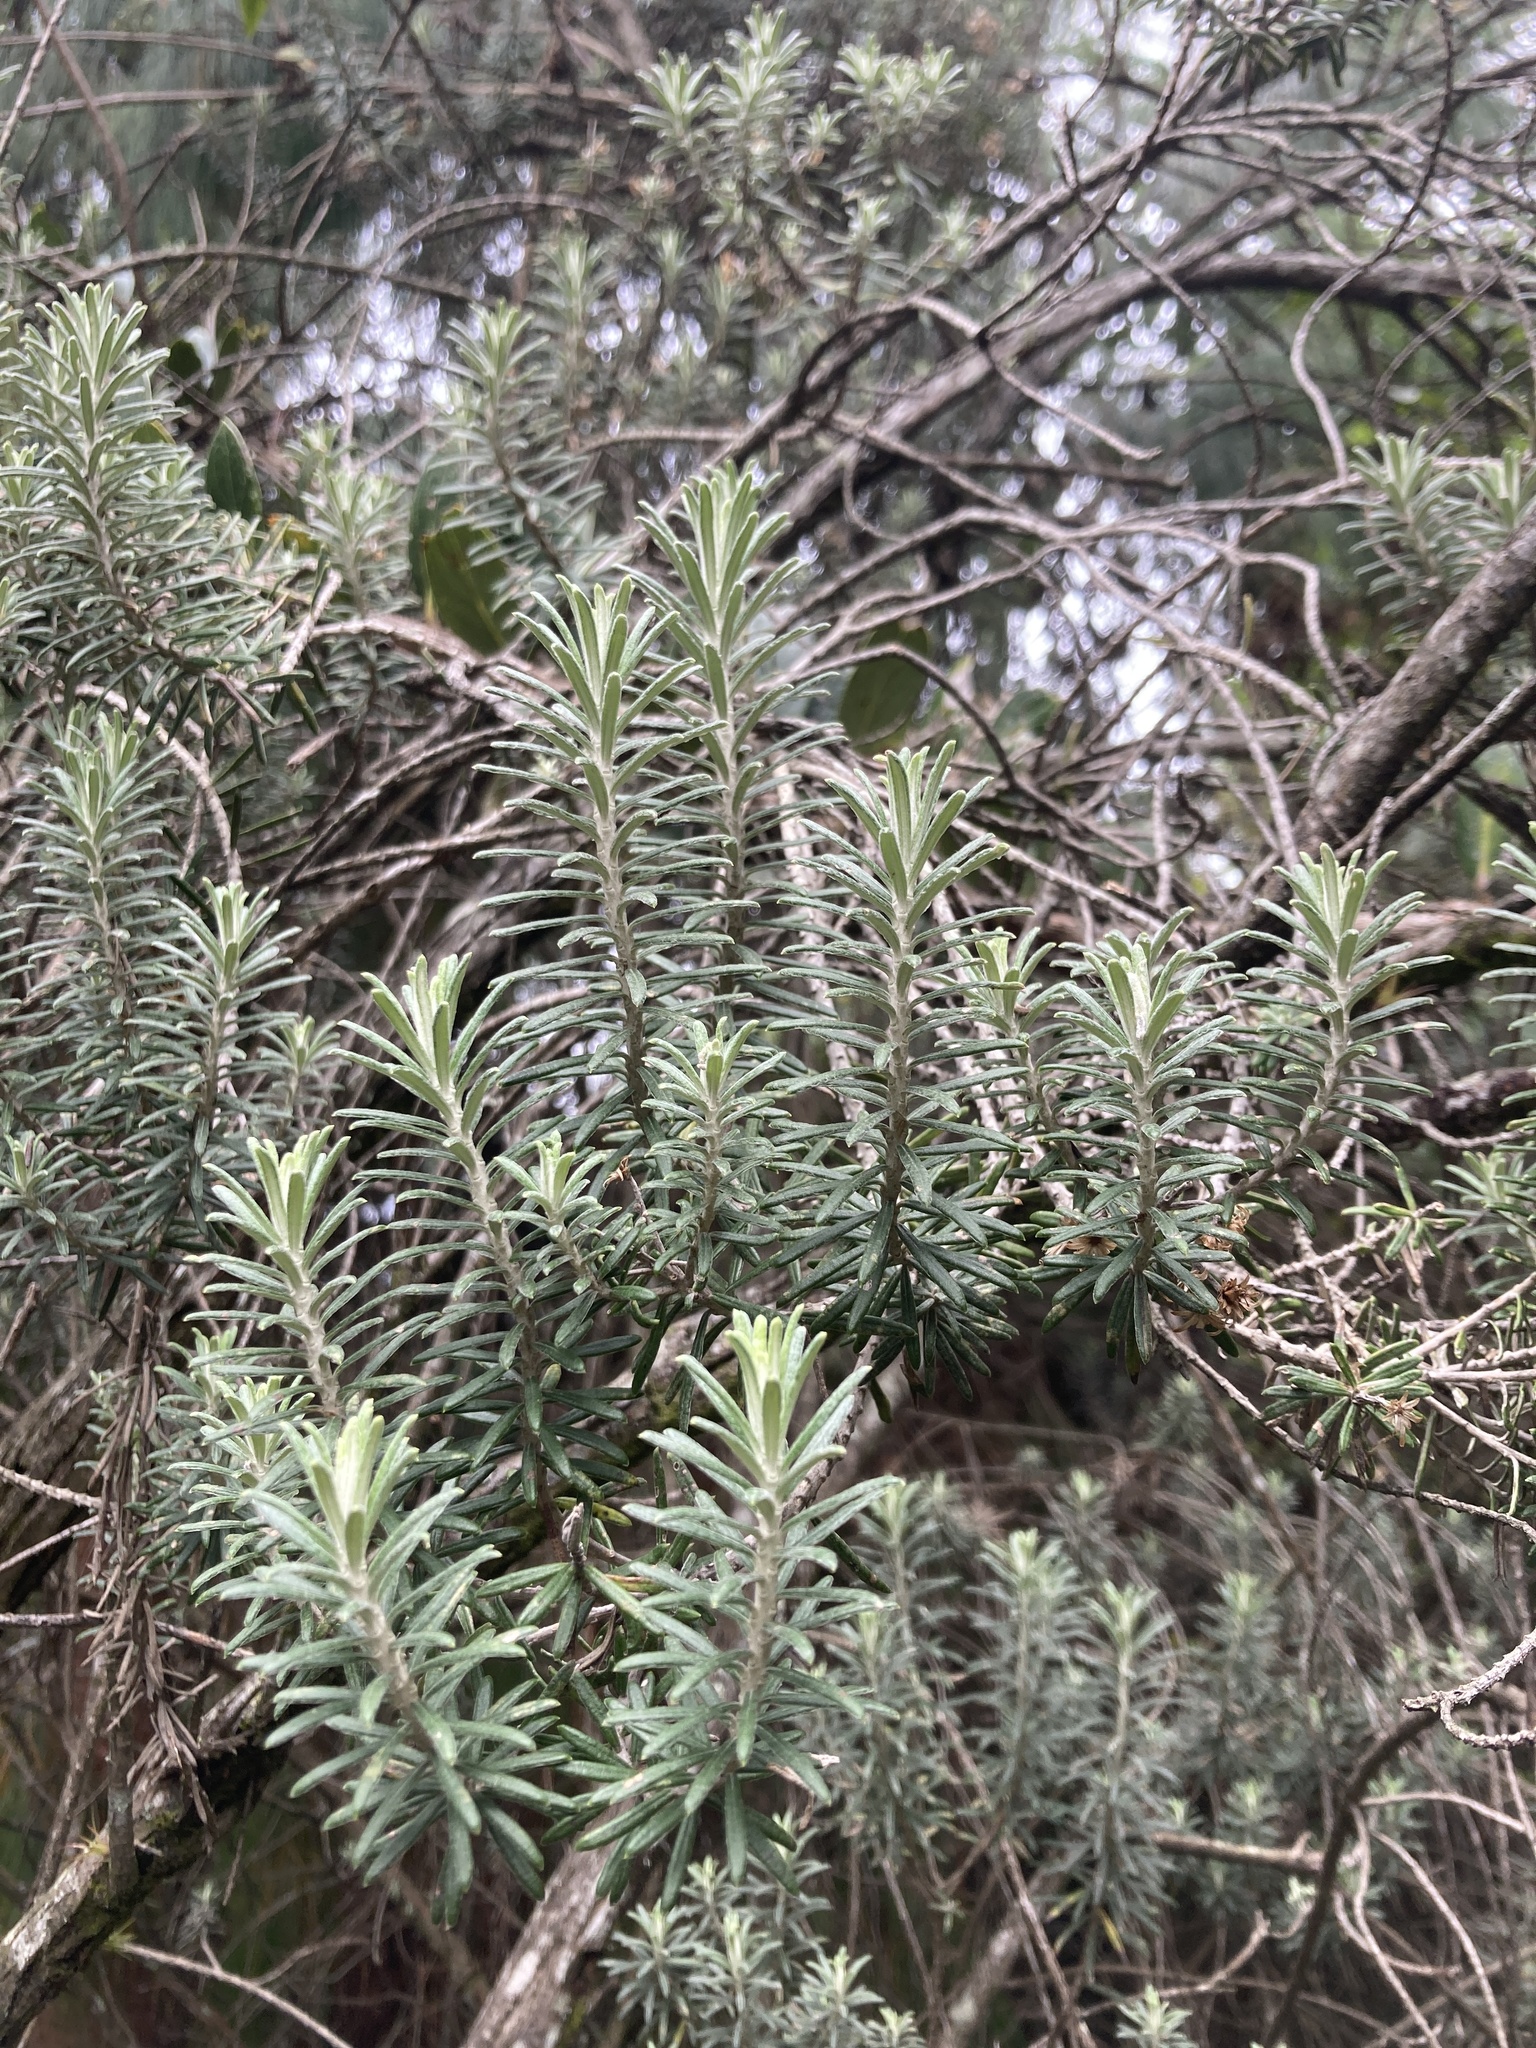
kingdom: Plantae
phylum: Tracheophyta
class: Magnoliopsida
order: Asterales
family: Asteraceae
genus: Linochilus
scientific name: Linochilus rosmarinifolius
